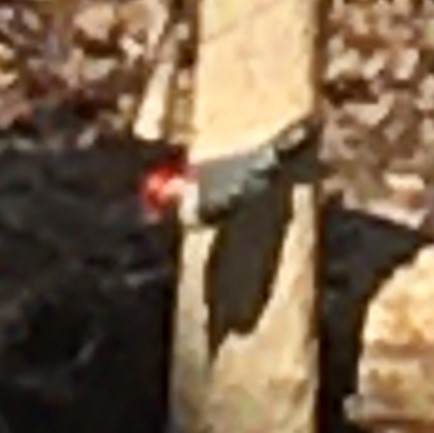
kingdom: Animalia
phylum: Chordata
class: Aves
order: Piciformes
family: Picidae
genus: Melanerpes
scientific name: Melanerpes carolinus
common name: Red-bellied woodpecker
